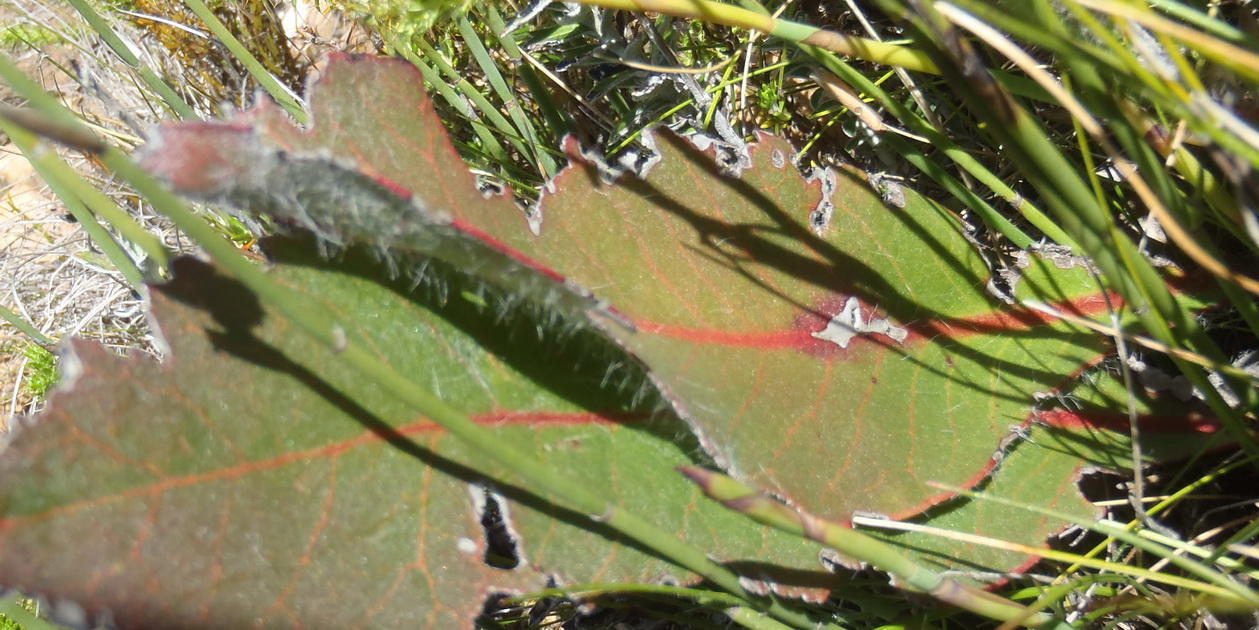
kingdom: Plantae
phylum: Tracheophyta
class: Magnoliopsida
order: Proteales
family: Proteaceae
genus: Protea
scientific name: Protea scolopendriifolia
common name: Harts-tongue-fern sugarbush
